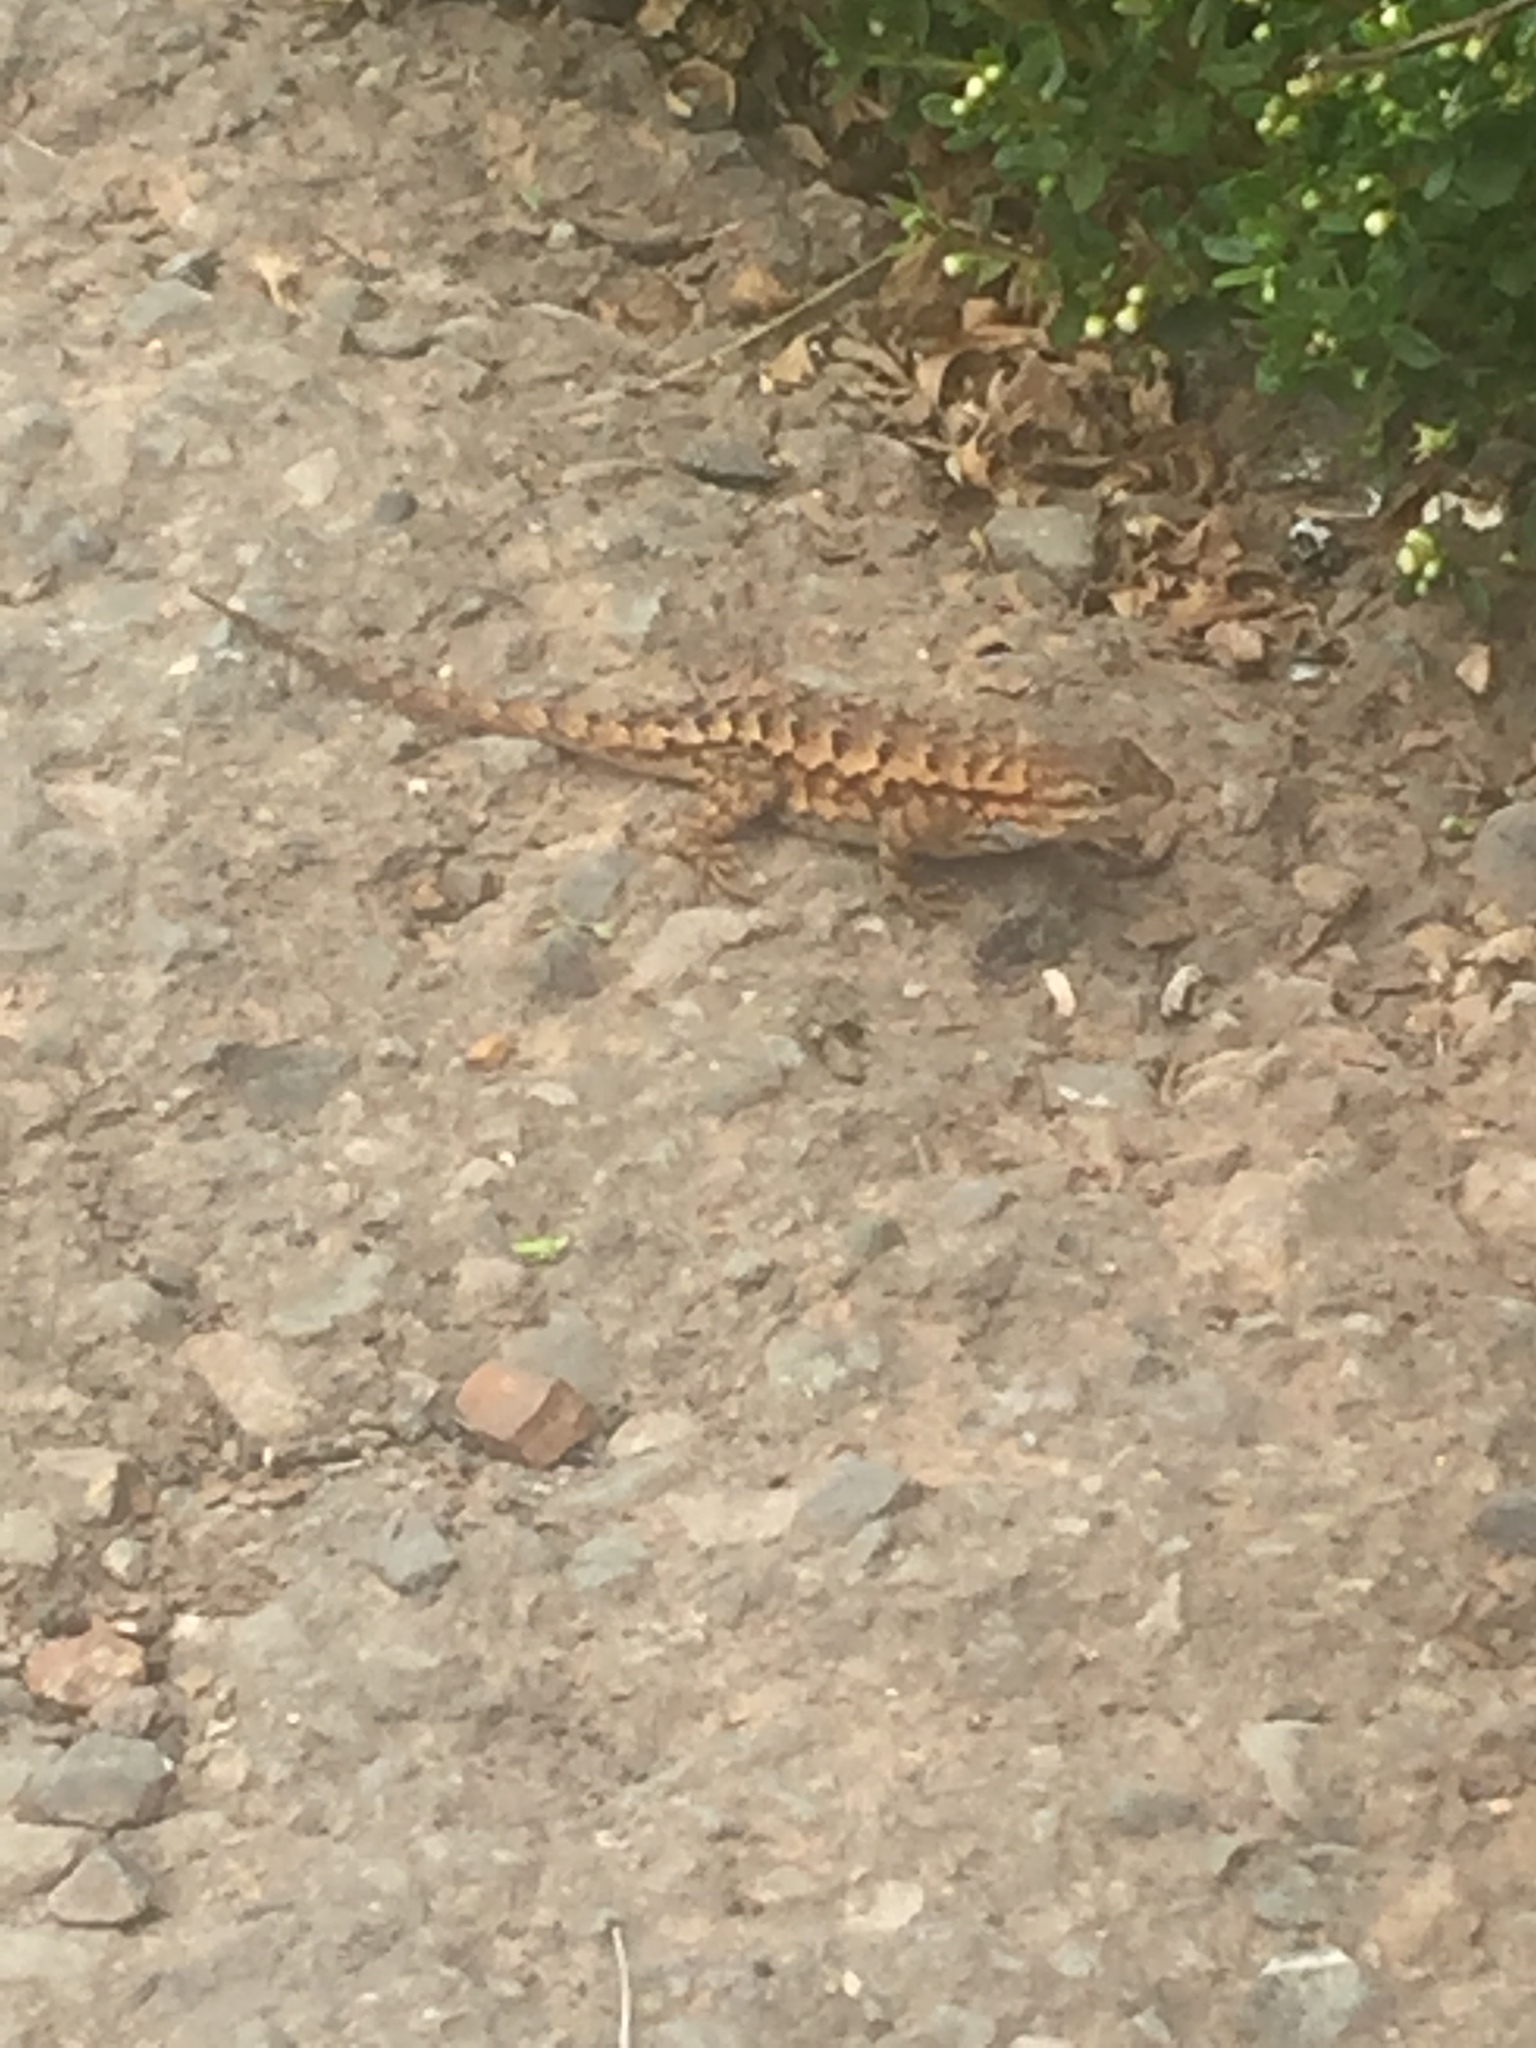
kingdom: Animalia
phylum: Chordata
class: Squamata
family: Phrynosomatidae
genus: Sceloporus
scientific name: Sceloporus occidentalis
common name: Western fence lizard
